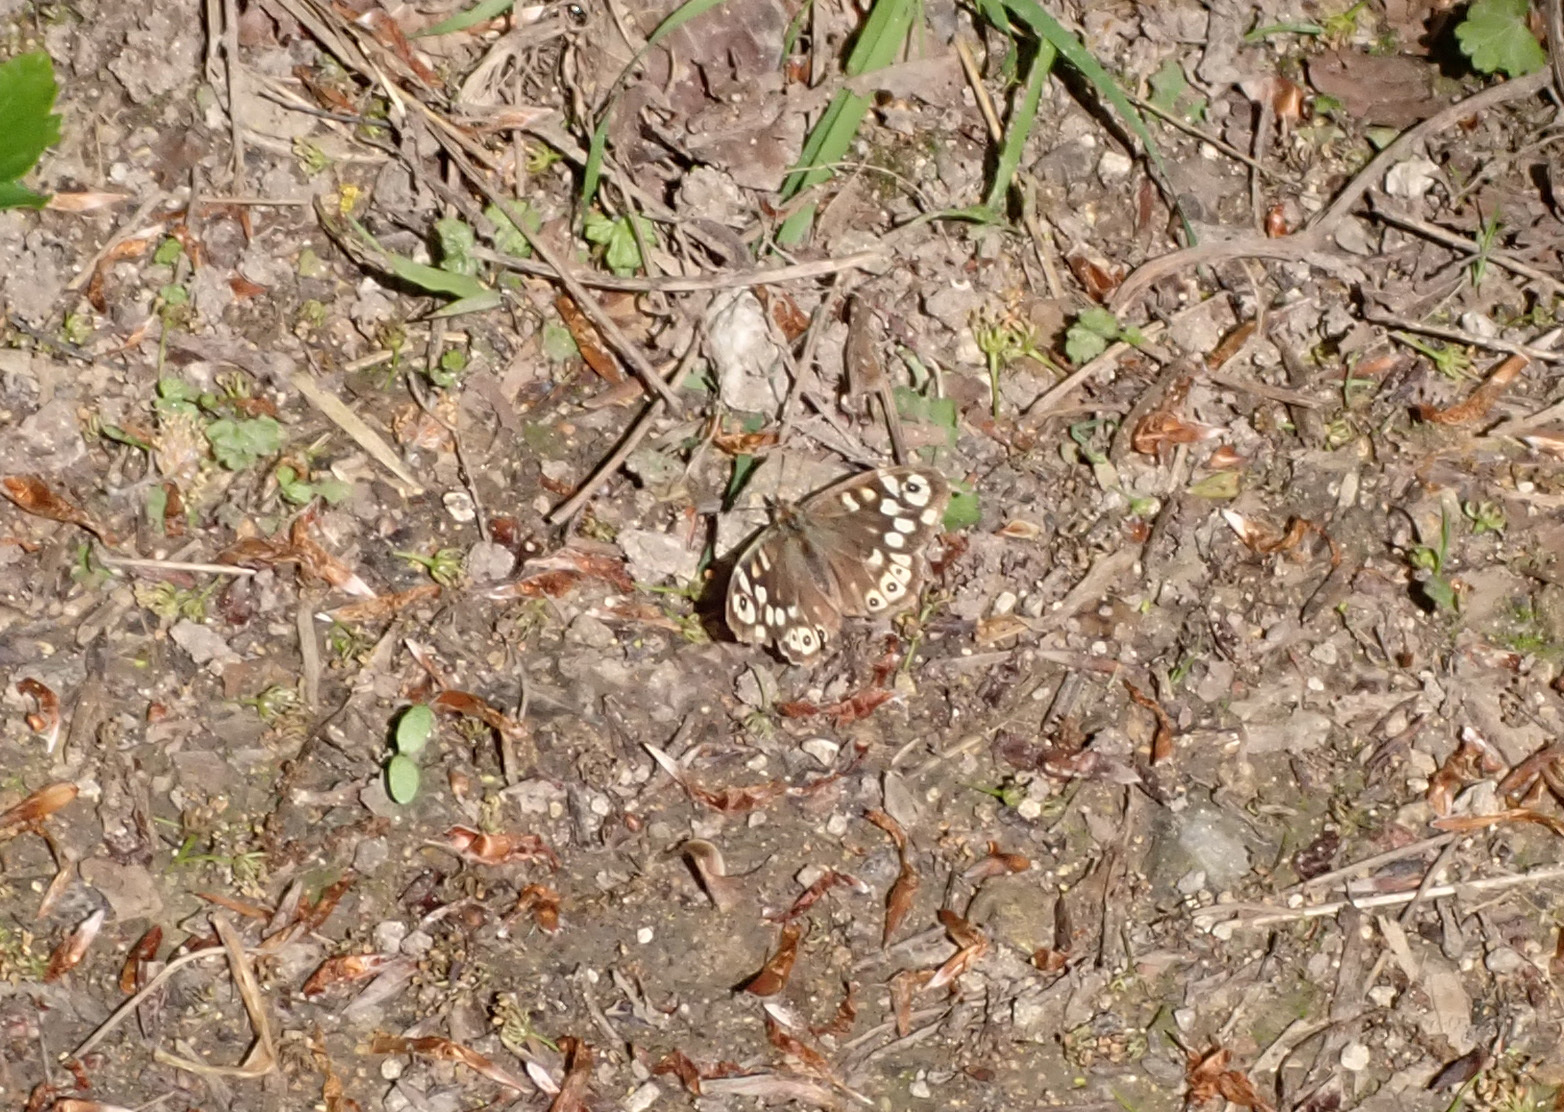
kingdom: Animalia
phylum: Arthropoda
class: Insecta
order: Lepidoptera
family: Nymphalidae
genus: Pararge
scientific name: Pararge aegeria
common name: Speckled wood
